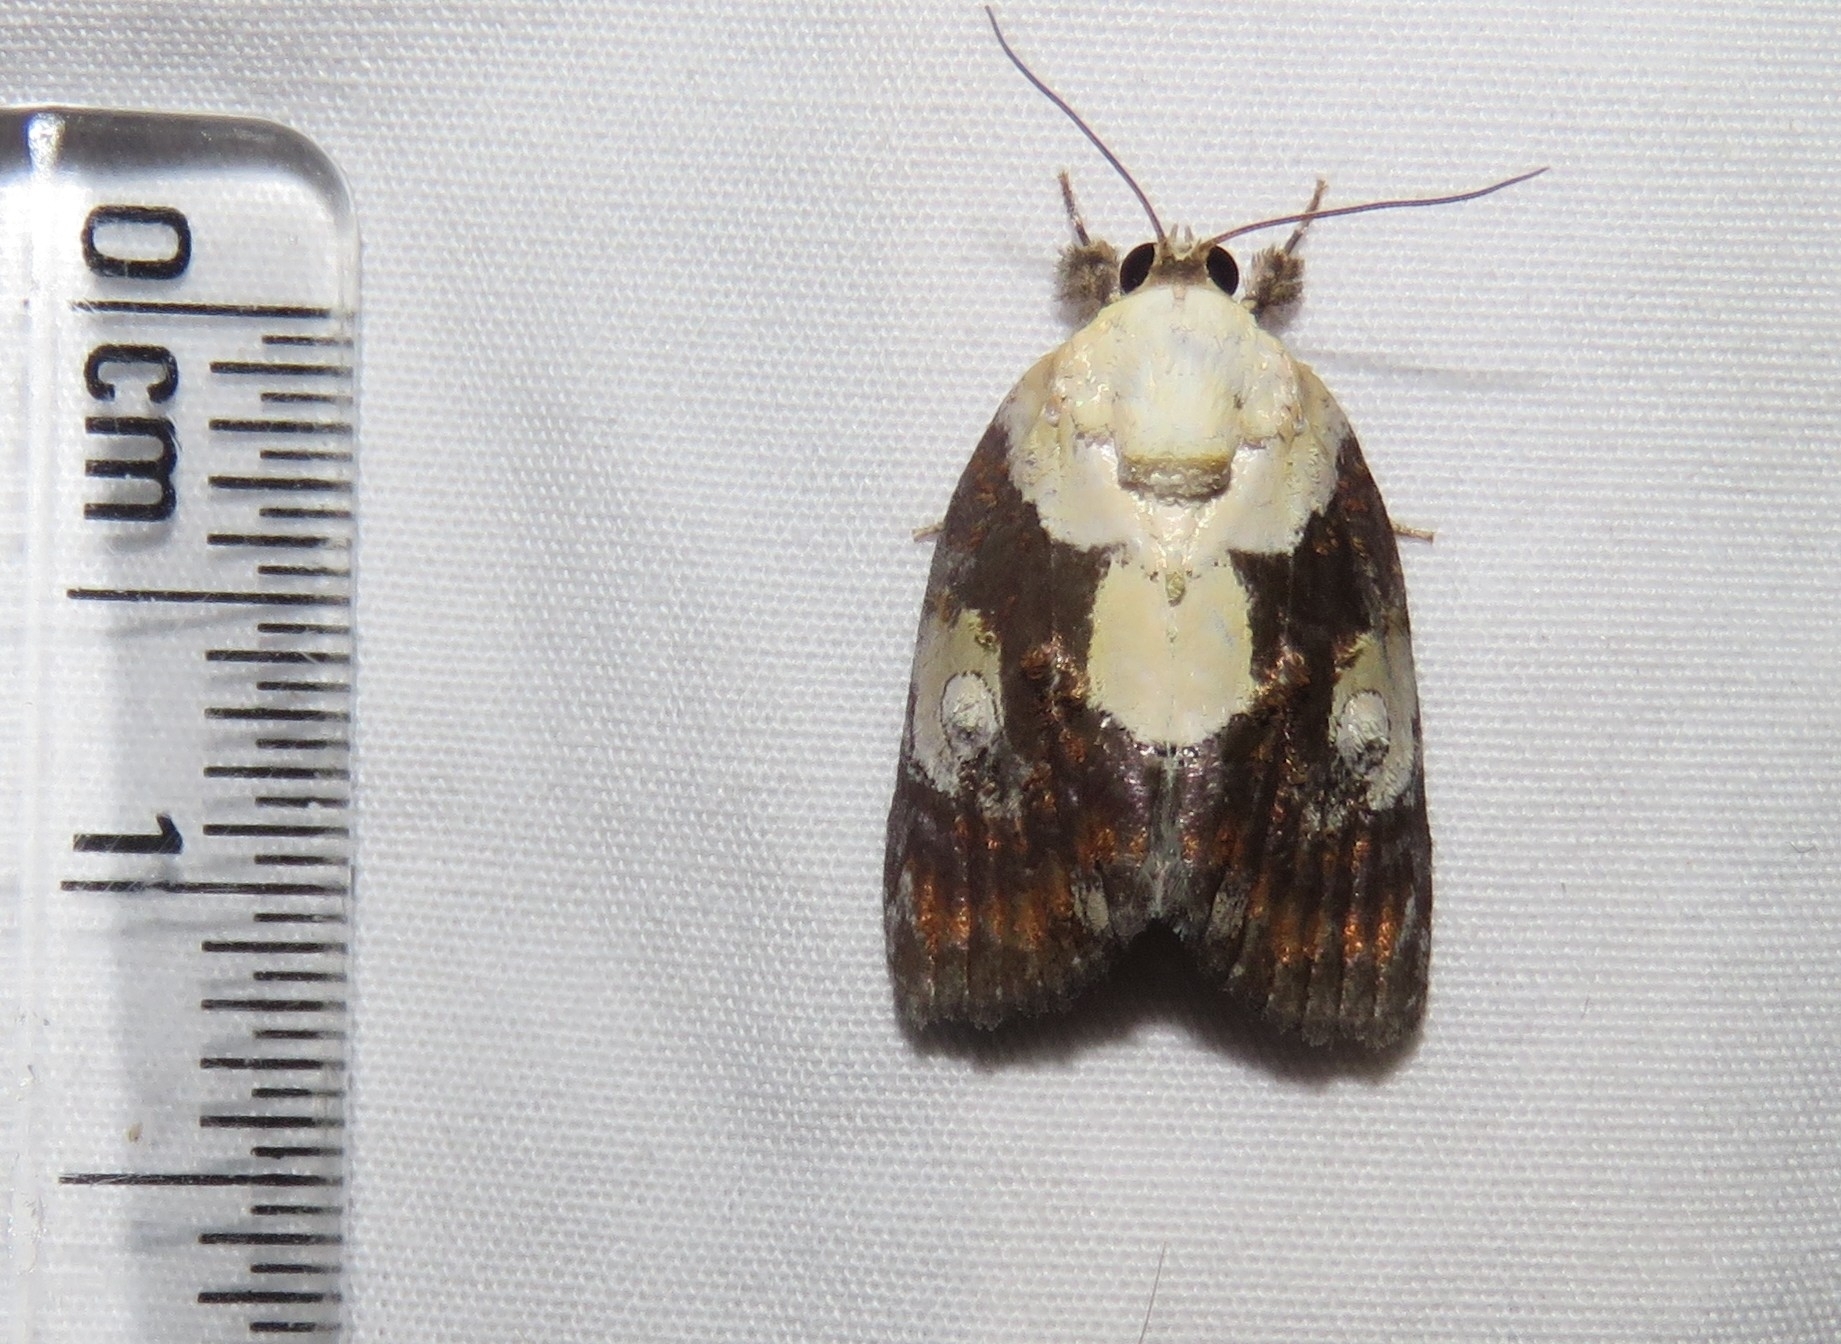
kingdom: Animalia
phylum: Arthropoda
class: Insecta
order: Lepidoptera
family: Nolidae
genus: Negritothripa
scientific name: Negritothripa orbifera
